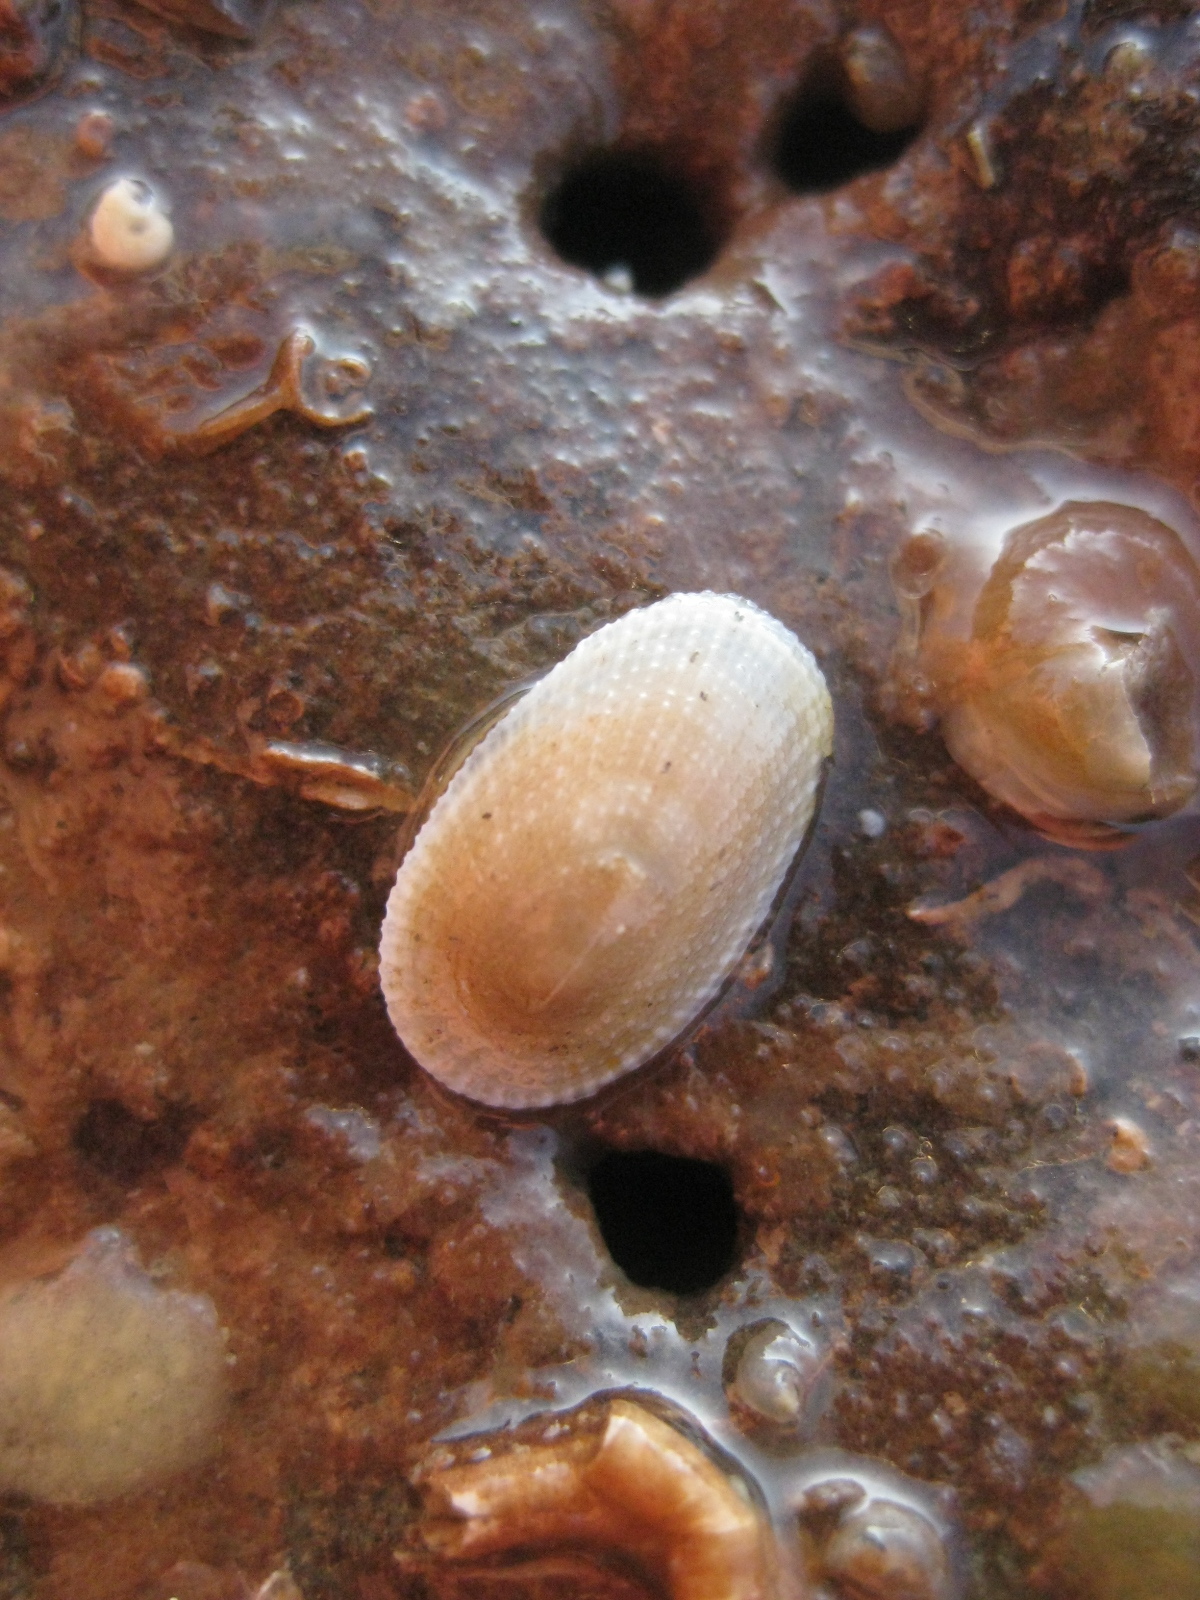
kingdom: Animalia
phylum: Mollusca
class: Gastropoda
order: Lepetellida
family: Fissurellidae
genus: Tugali
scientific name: Tugali suteri
